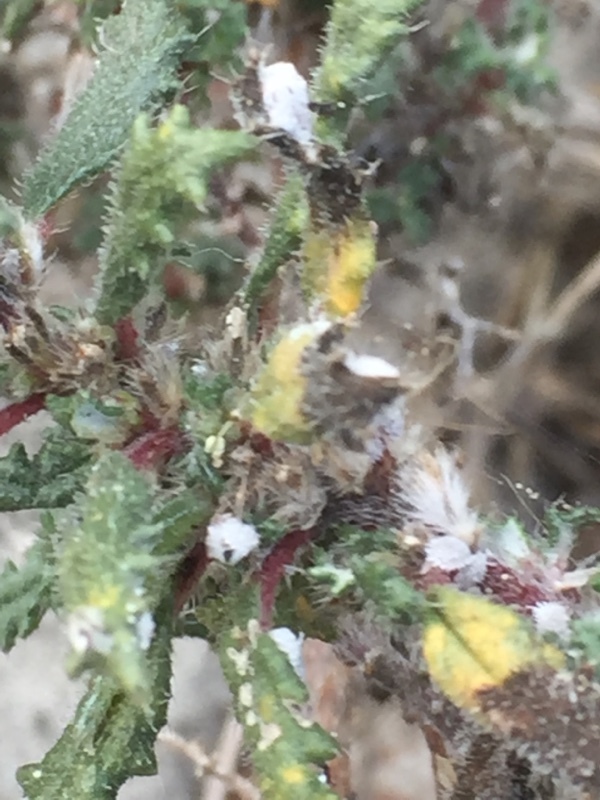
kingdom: Plantae
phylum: Tracheophyta
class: Magnoliopsida
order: Rosales
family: Urticaceae
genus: Forsskaolea
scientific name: Forsskaolea angustifolia
